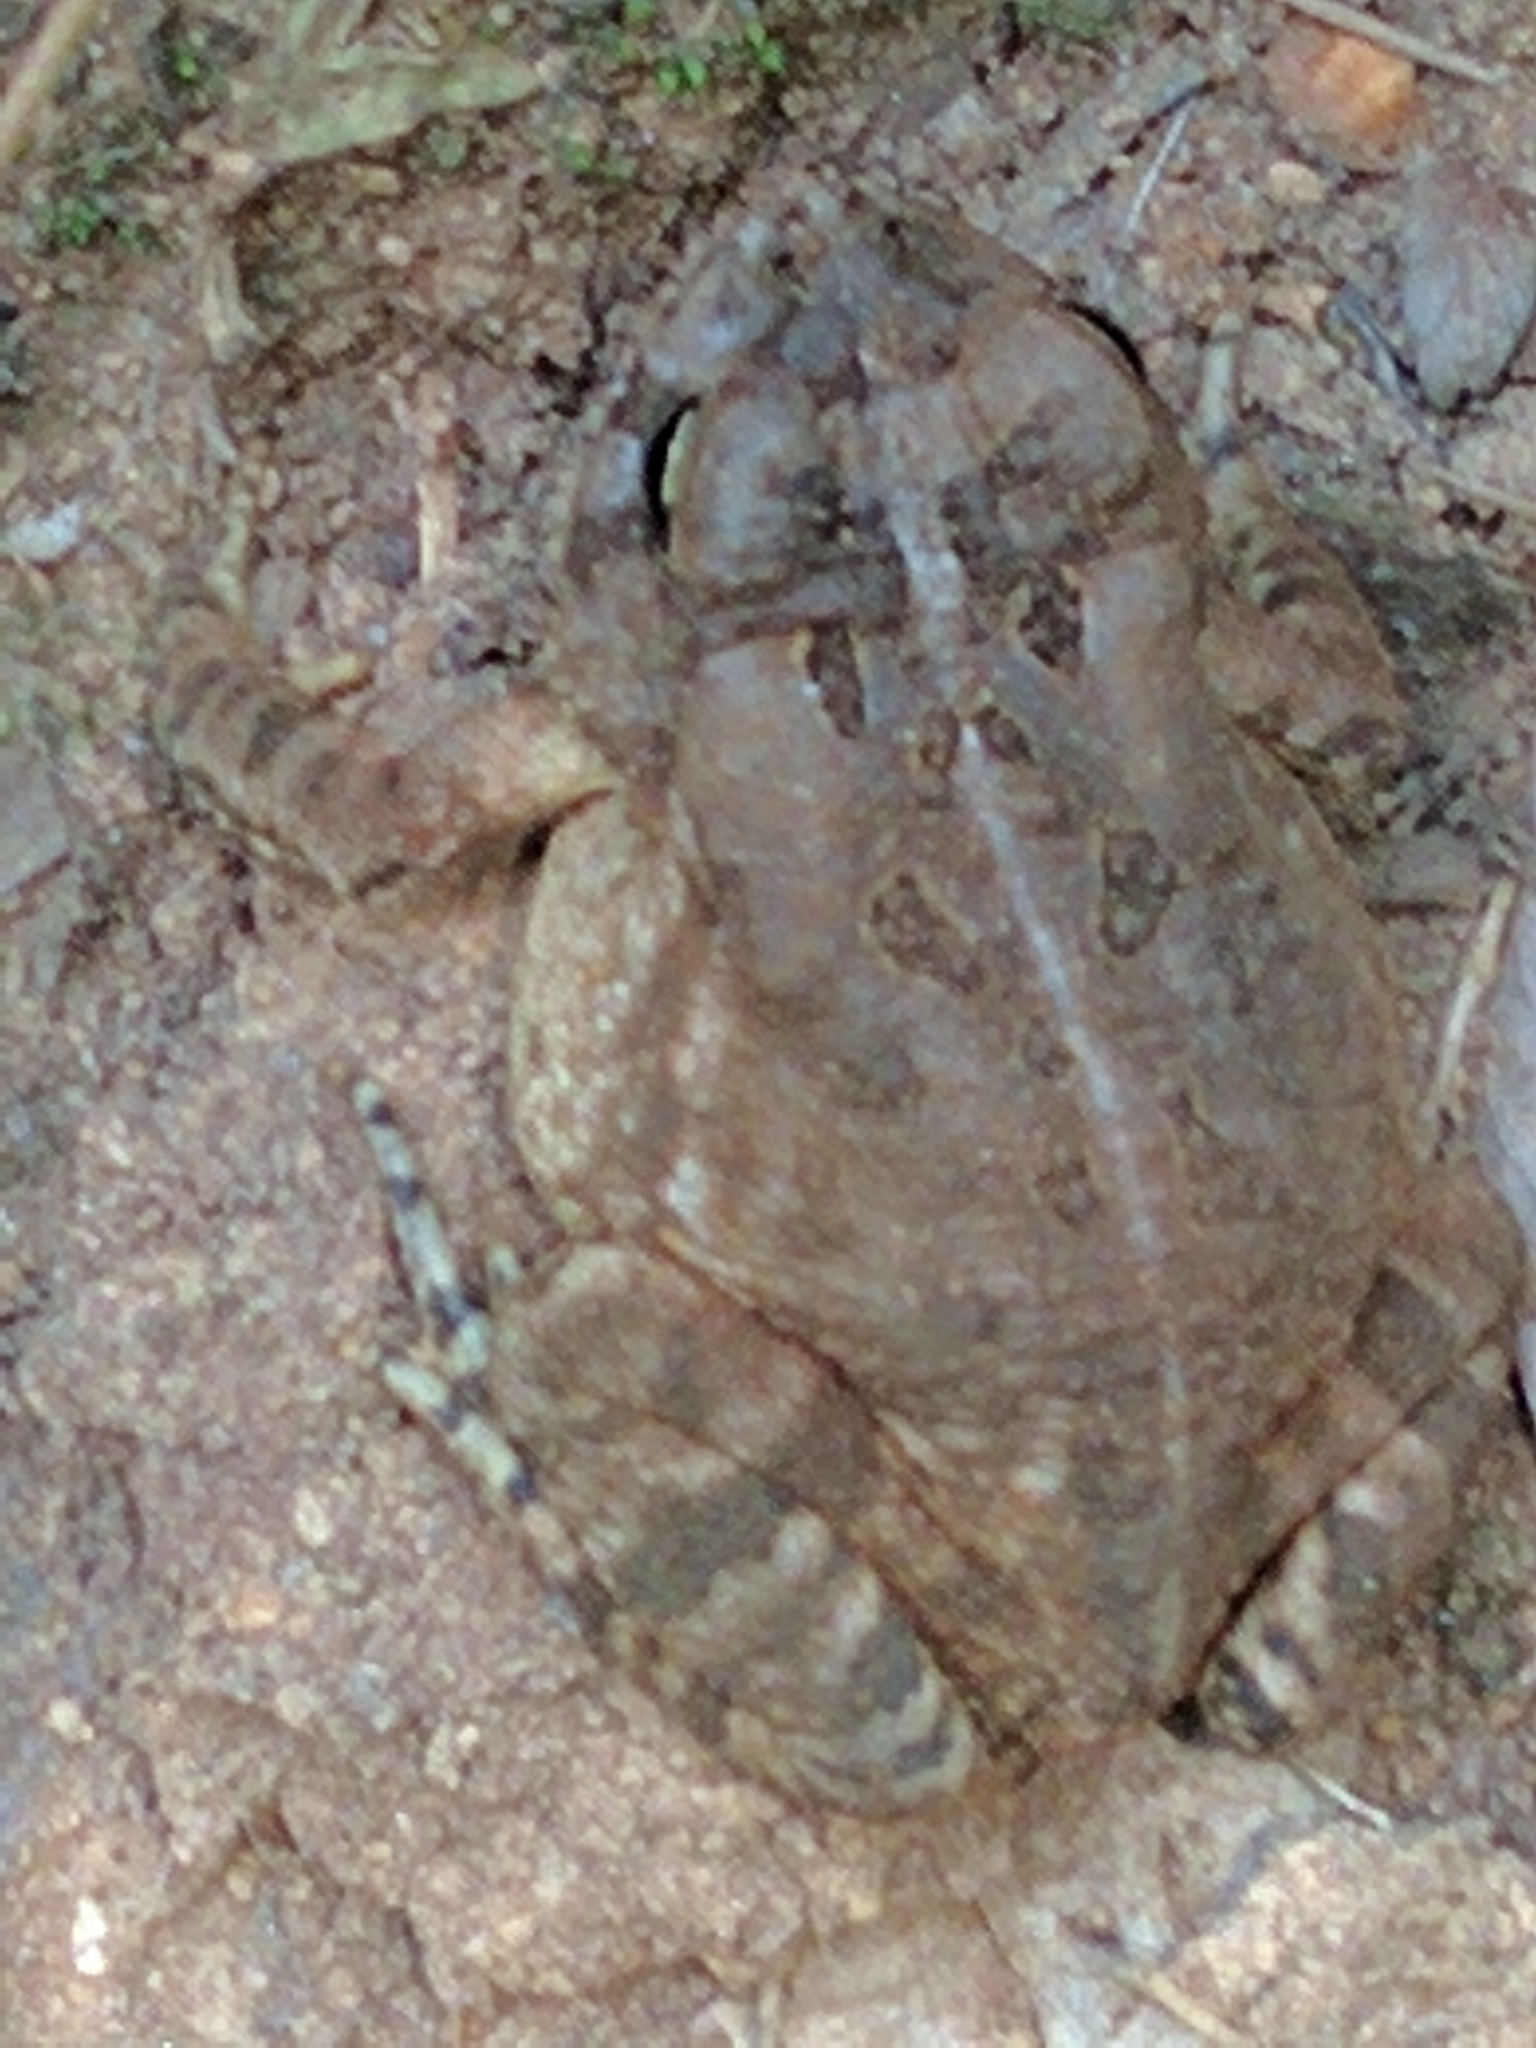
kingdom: Animalia
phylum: Chordata
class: Amphibia
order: Anura
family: Bufonidae
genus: Anaxyrus
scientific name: Anaxyrus fowleri
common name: Fowler's toad
